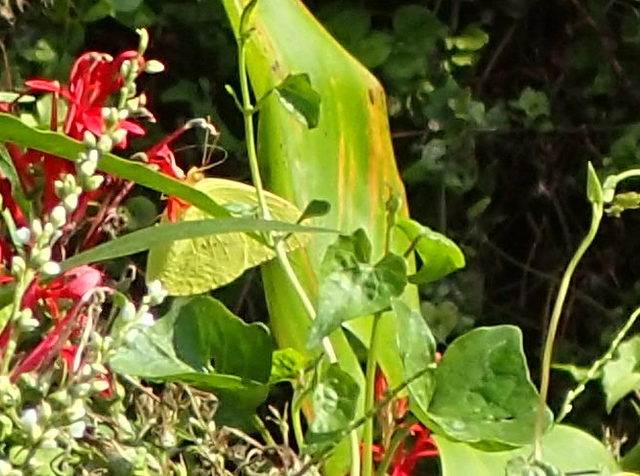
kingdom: Animalia
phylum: Arthropoda
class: Insecta
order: Lepidoptera
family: Pieridae
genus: Phoebis
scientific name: Phoebis sennae
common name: Cloudless sulphur
